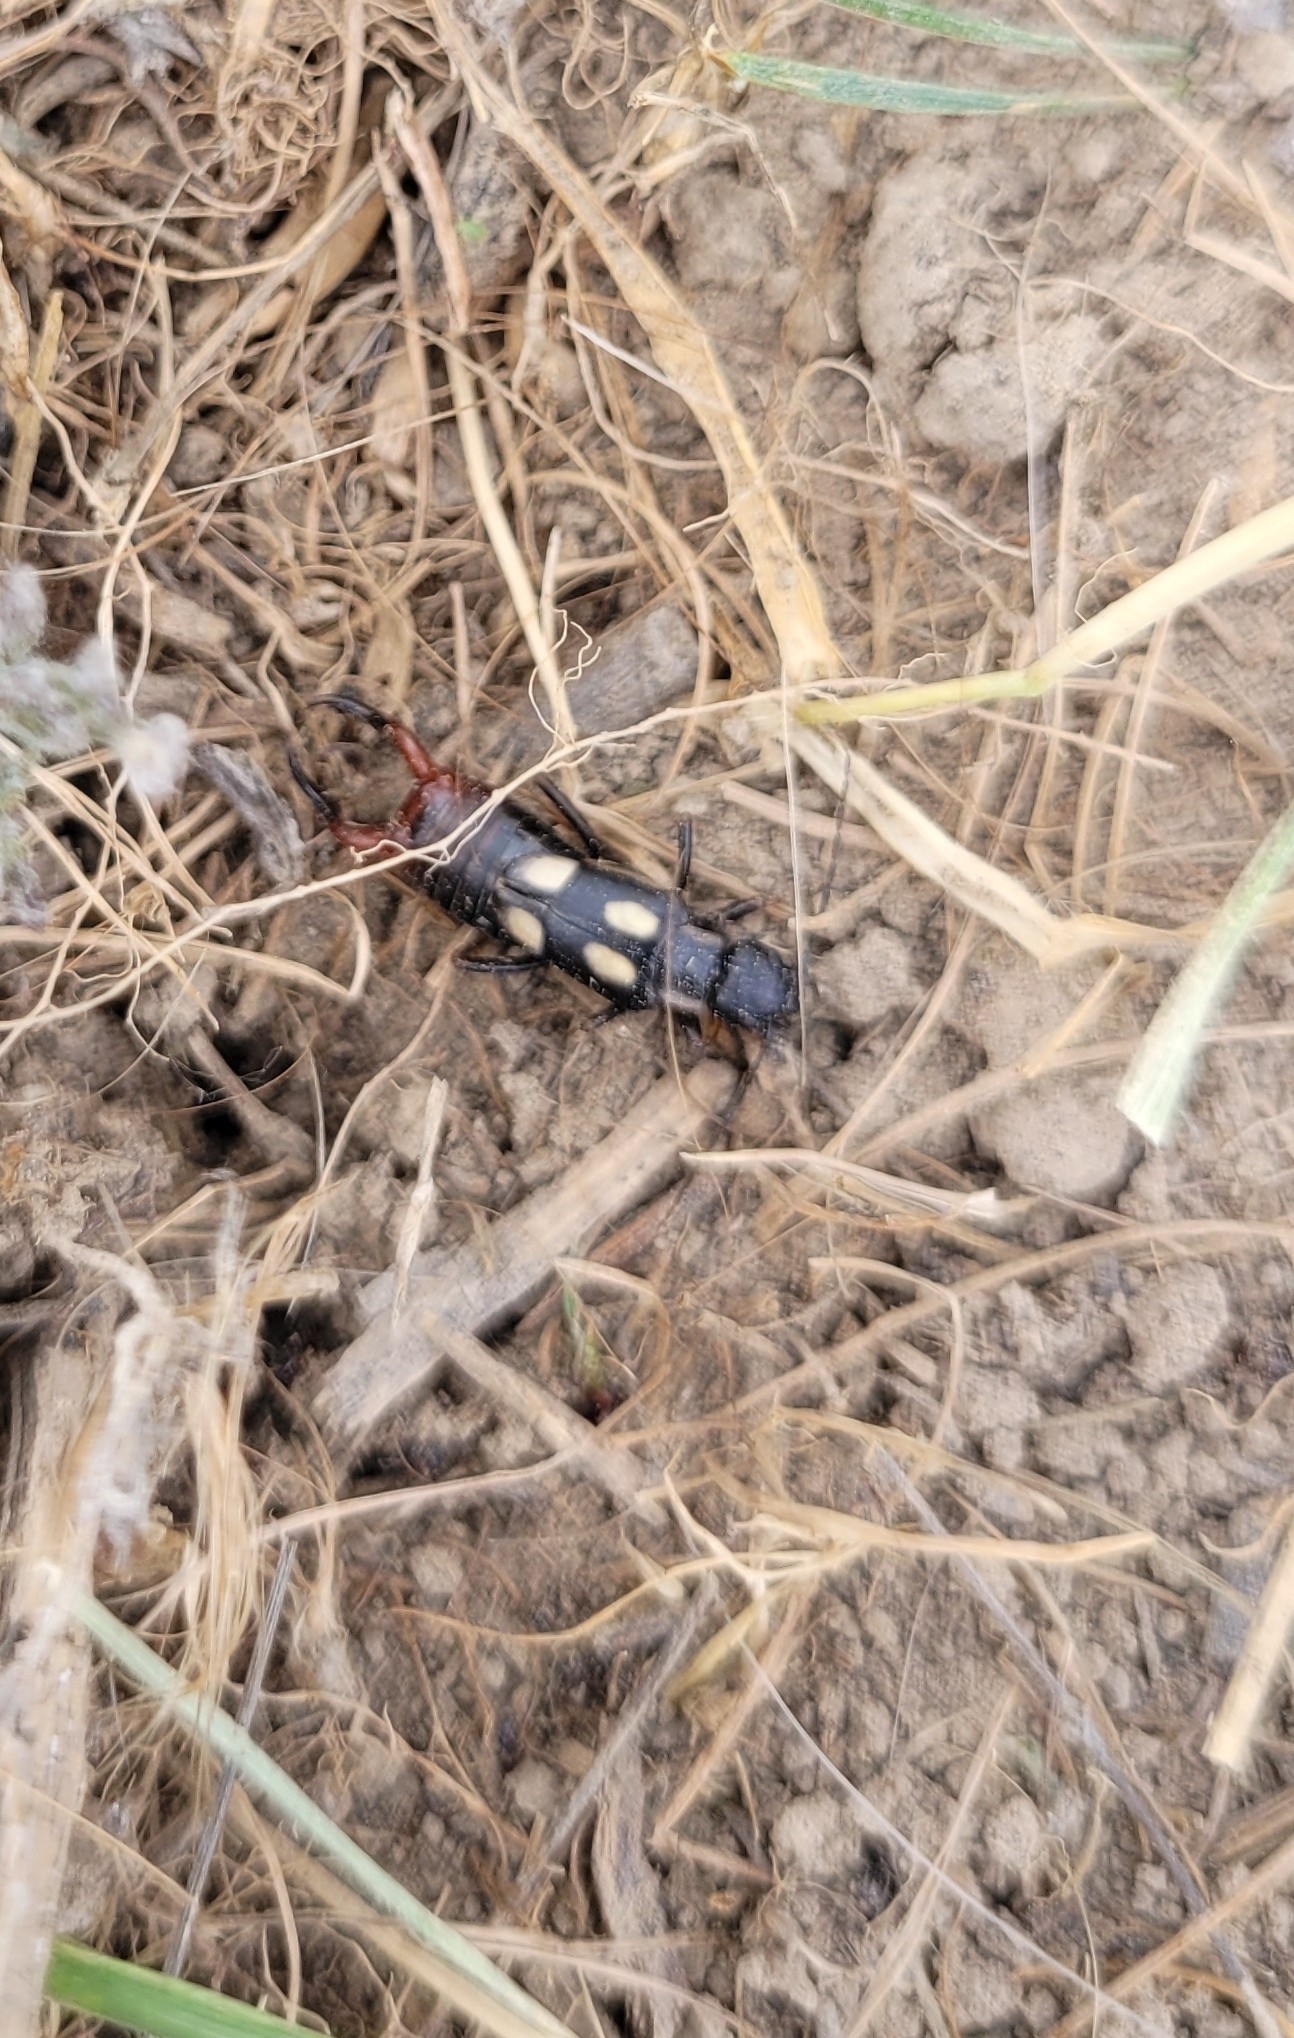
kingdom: Animalia
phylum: Arthropoda
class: Insecta
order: Dermaptera
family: Forficulidae
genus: Anechura
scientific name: Anechura bipunctata
